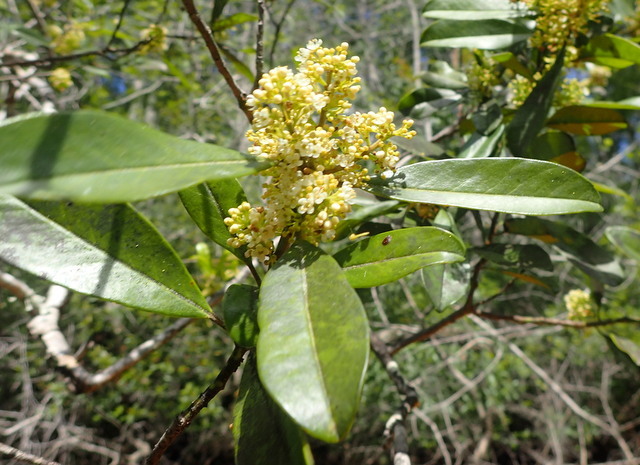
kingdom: Plantae
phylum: Tracheophyta
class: Magnoliopsida
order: Aquifoliales
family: Aquifoliaceae
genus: Ilex
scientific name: Ilex cassine
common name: Dahoon
